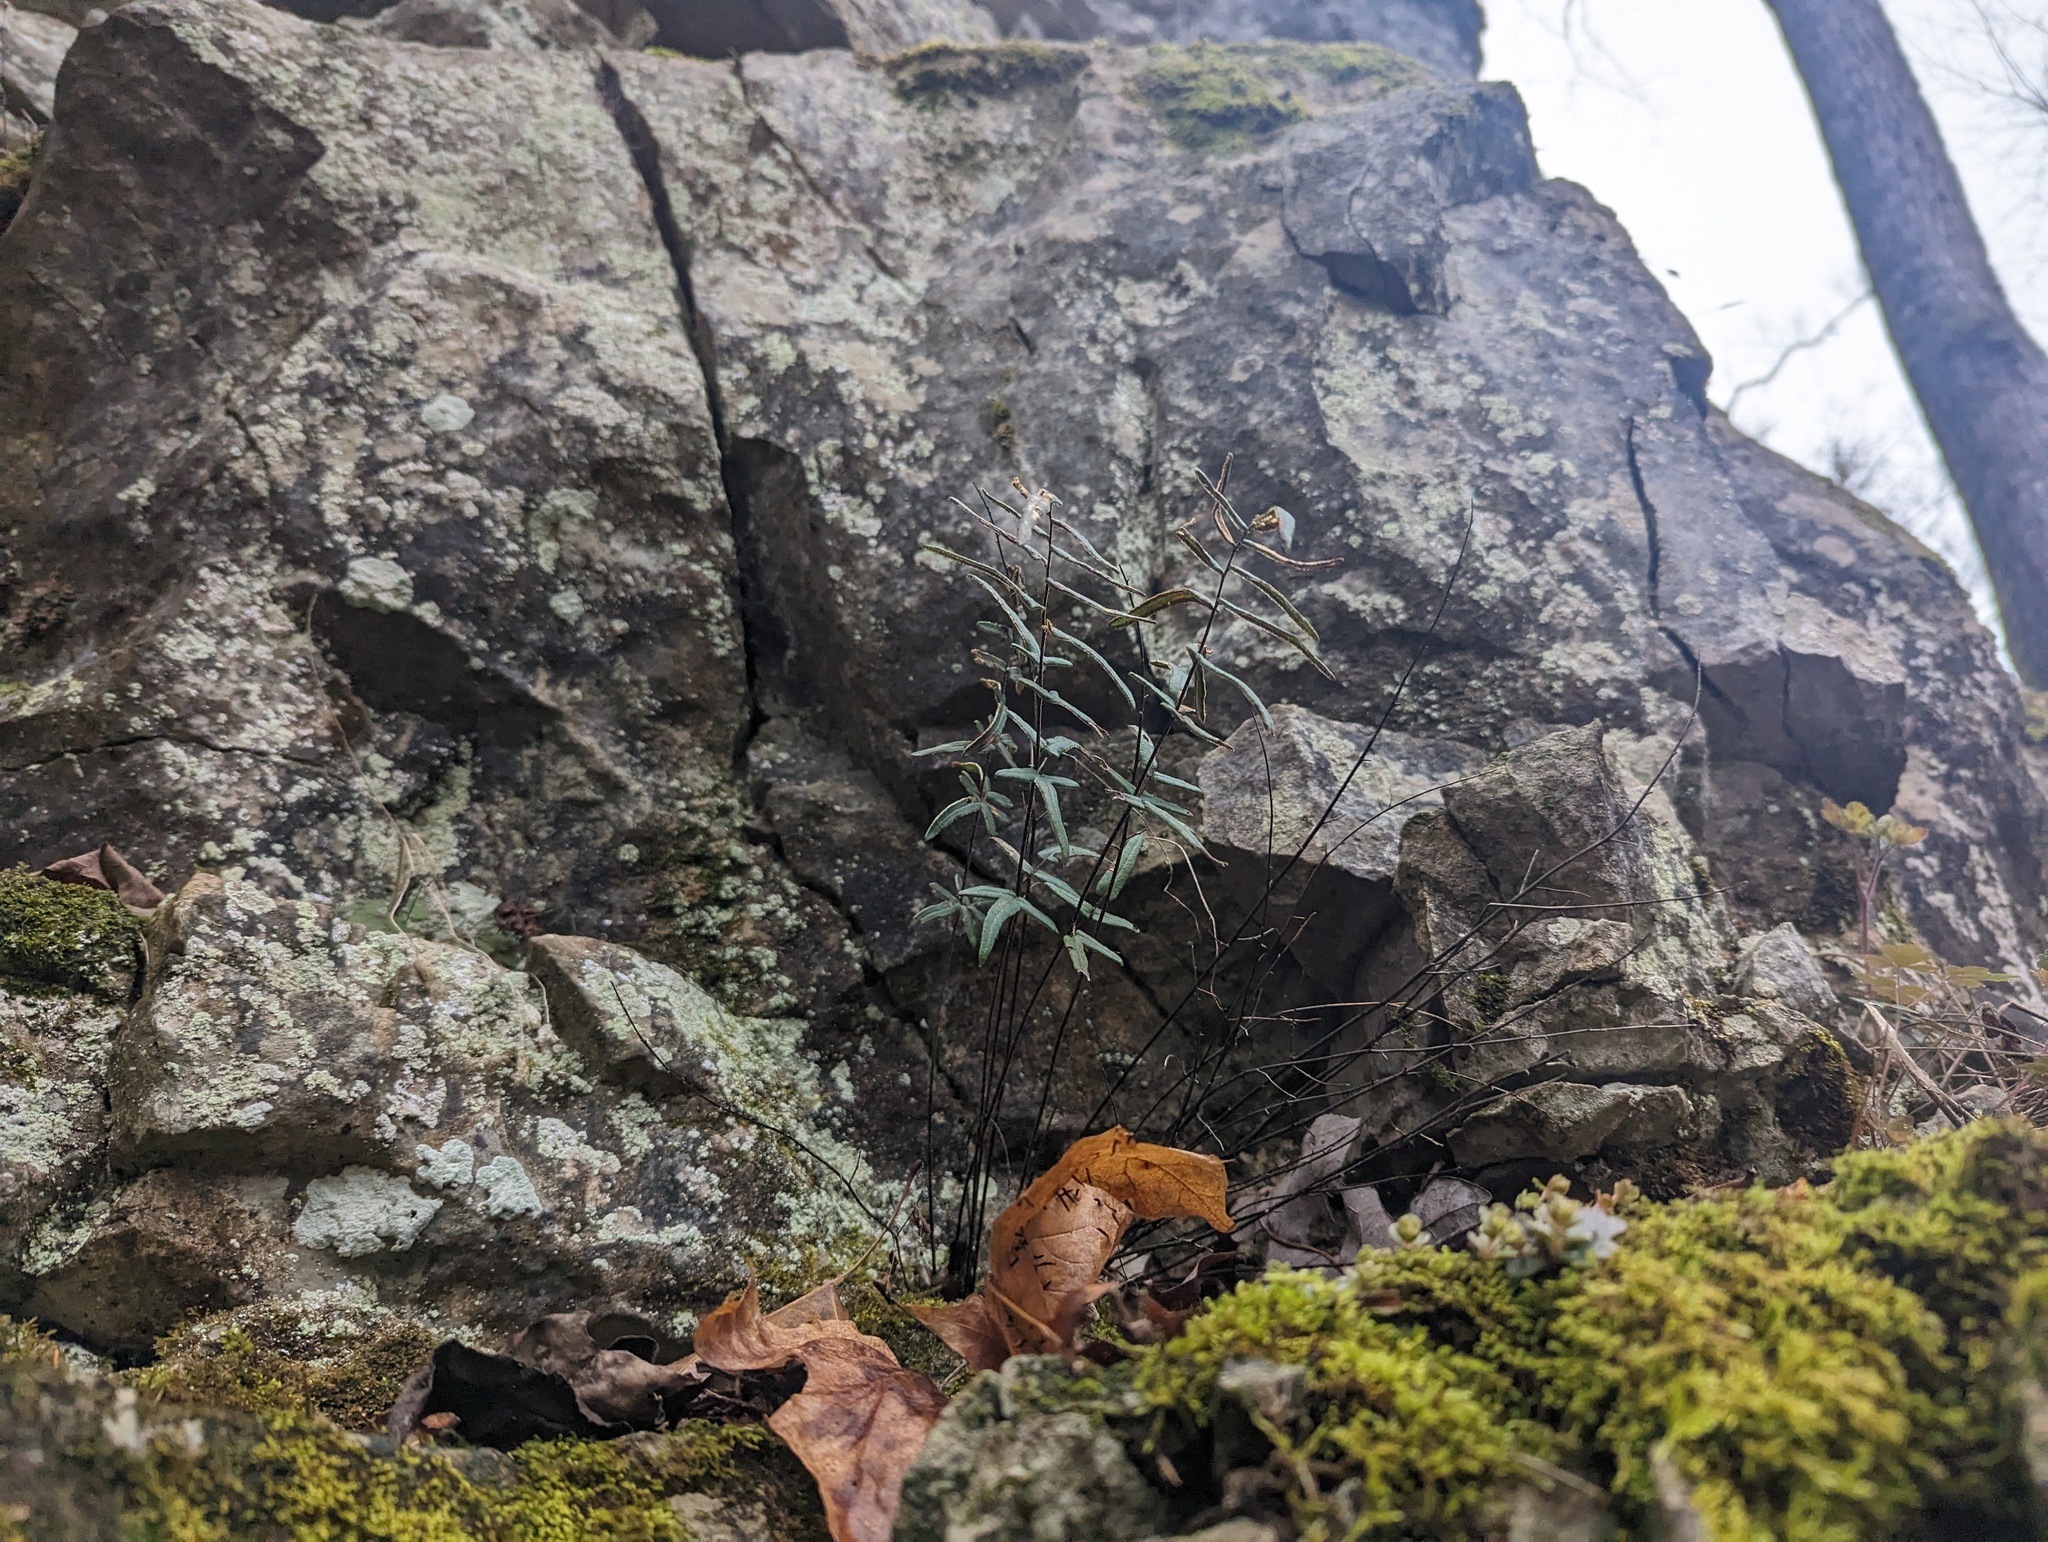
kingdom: Plantae
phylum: Tracheophyta
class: Polypodiopsida
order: Polypodiales
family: Pteridaceae
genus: Pellaea
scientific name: Pellaea atropurpurea
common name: Hairy cliffbrake
